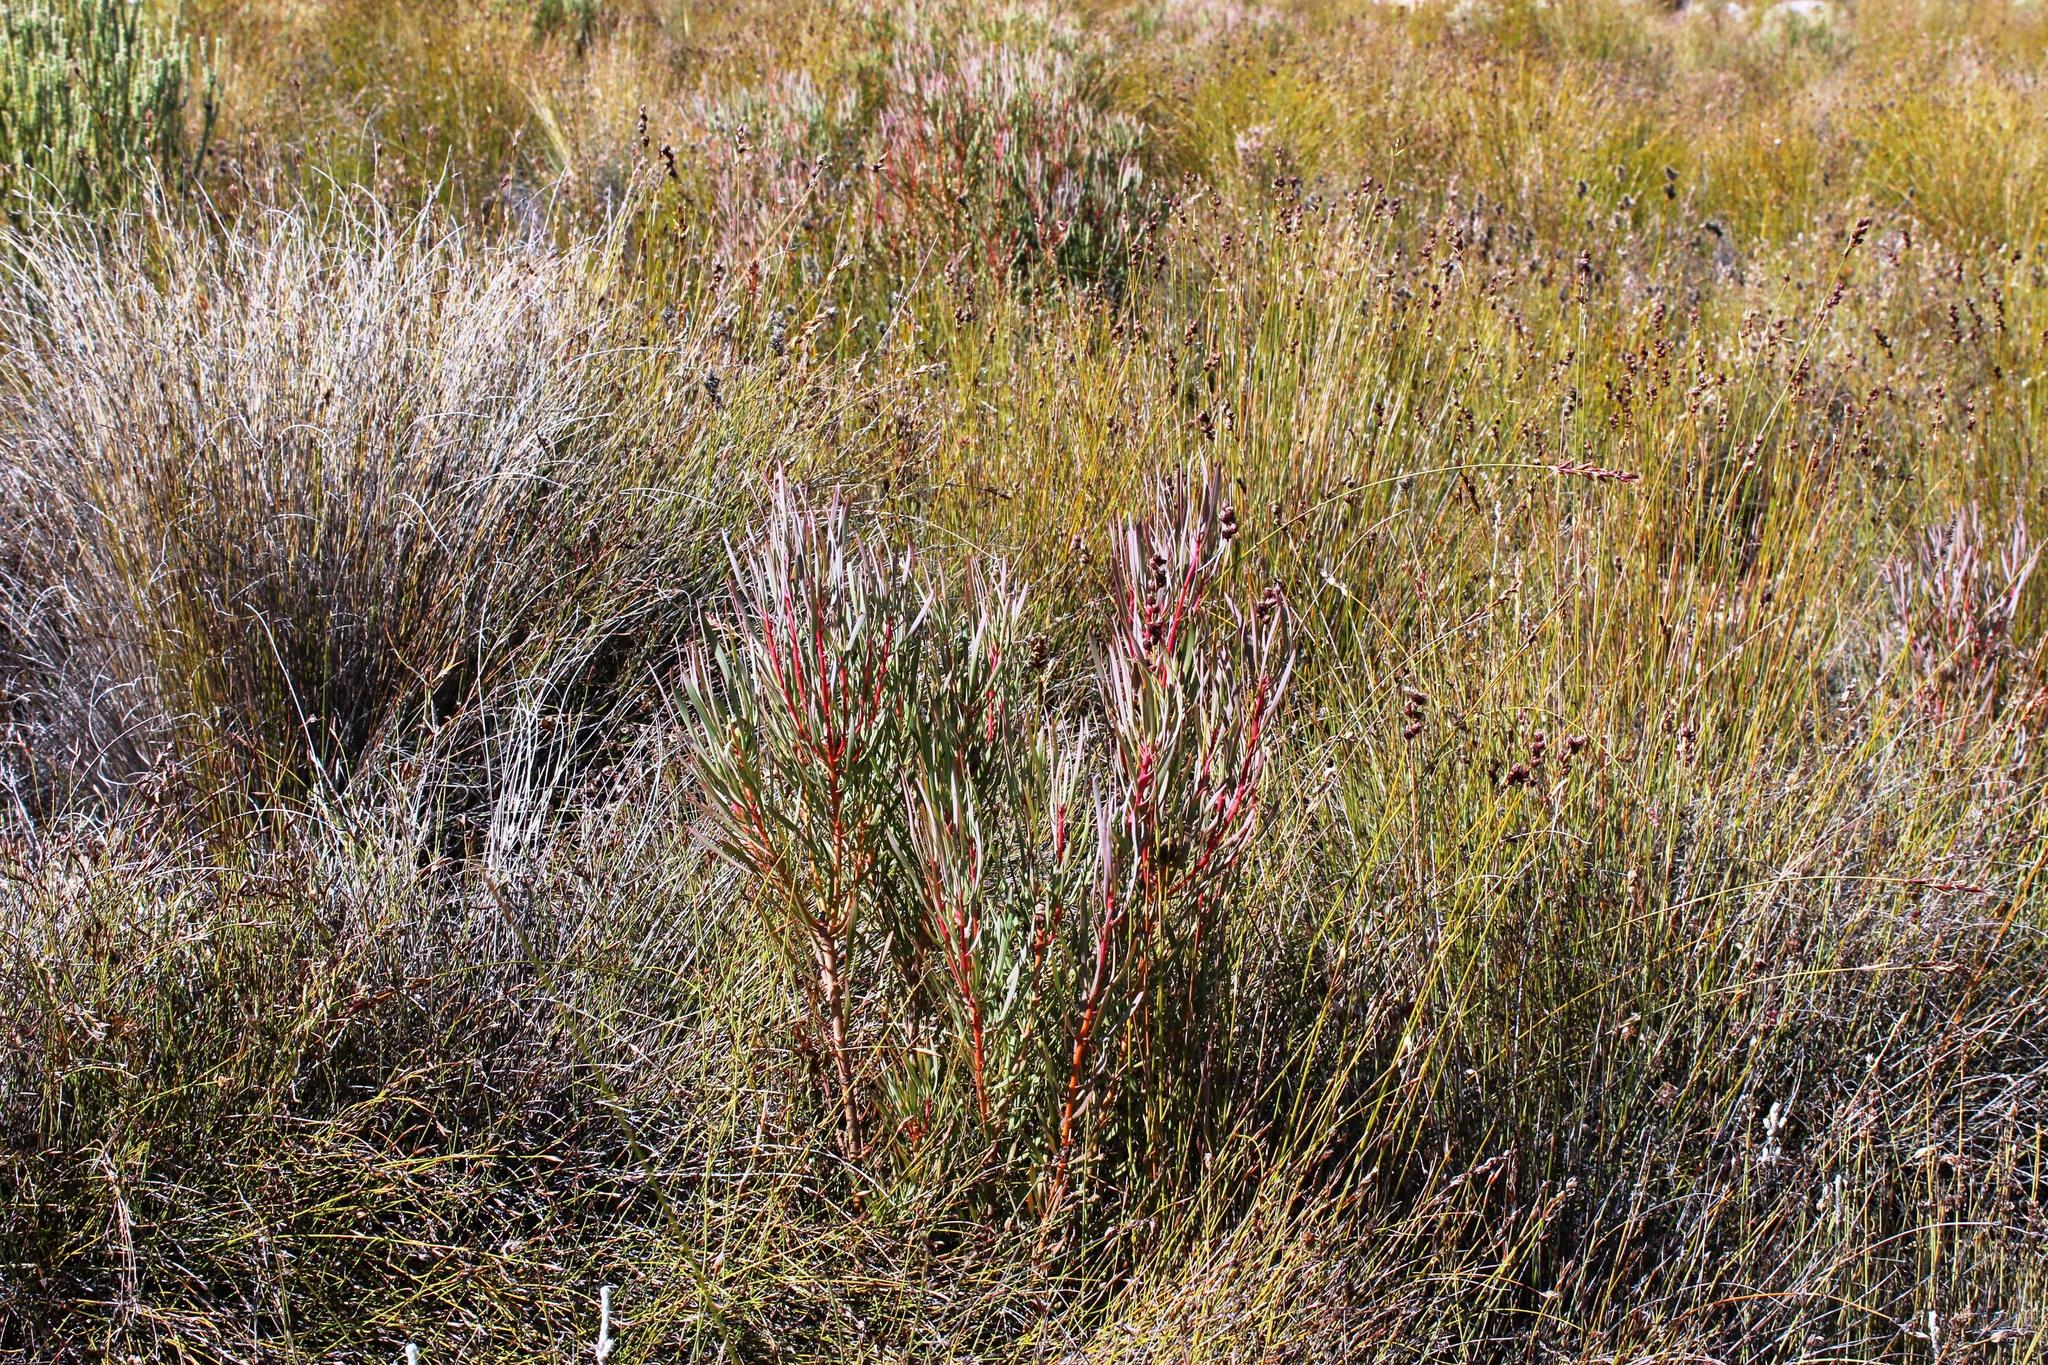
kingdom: Plantae
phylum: Tracheophyta
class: Magnoliopsida
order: Proteales
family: Proteaceae
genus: Protea
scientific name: Protea acuminata
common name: Black-rim sugarbush
